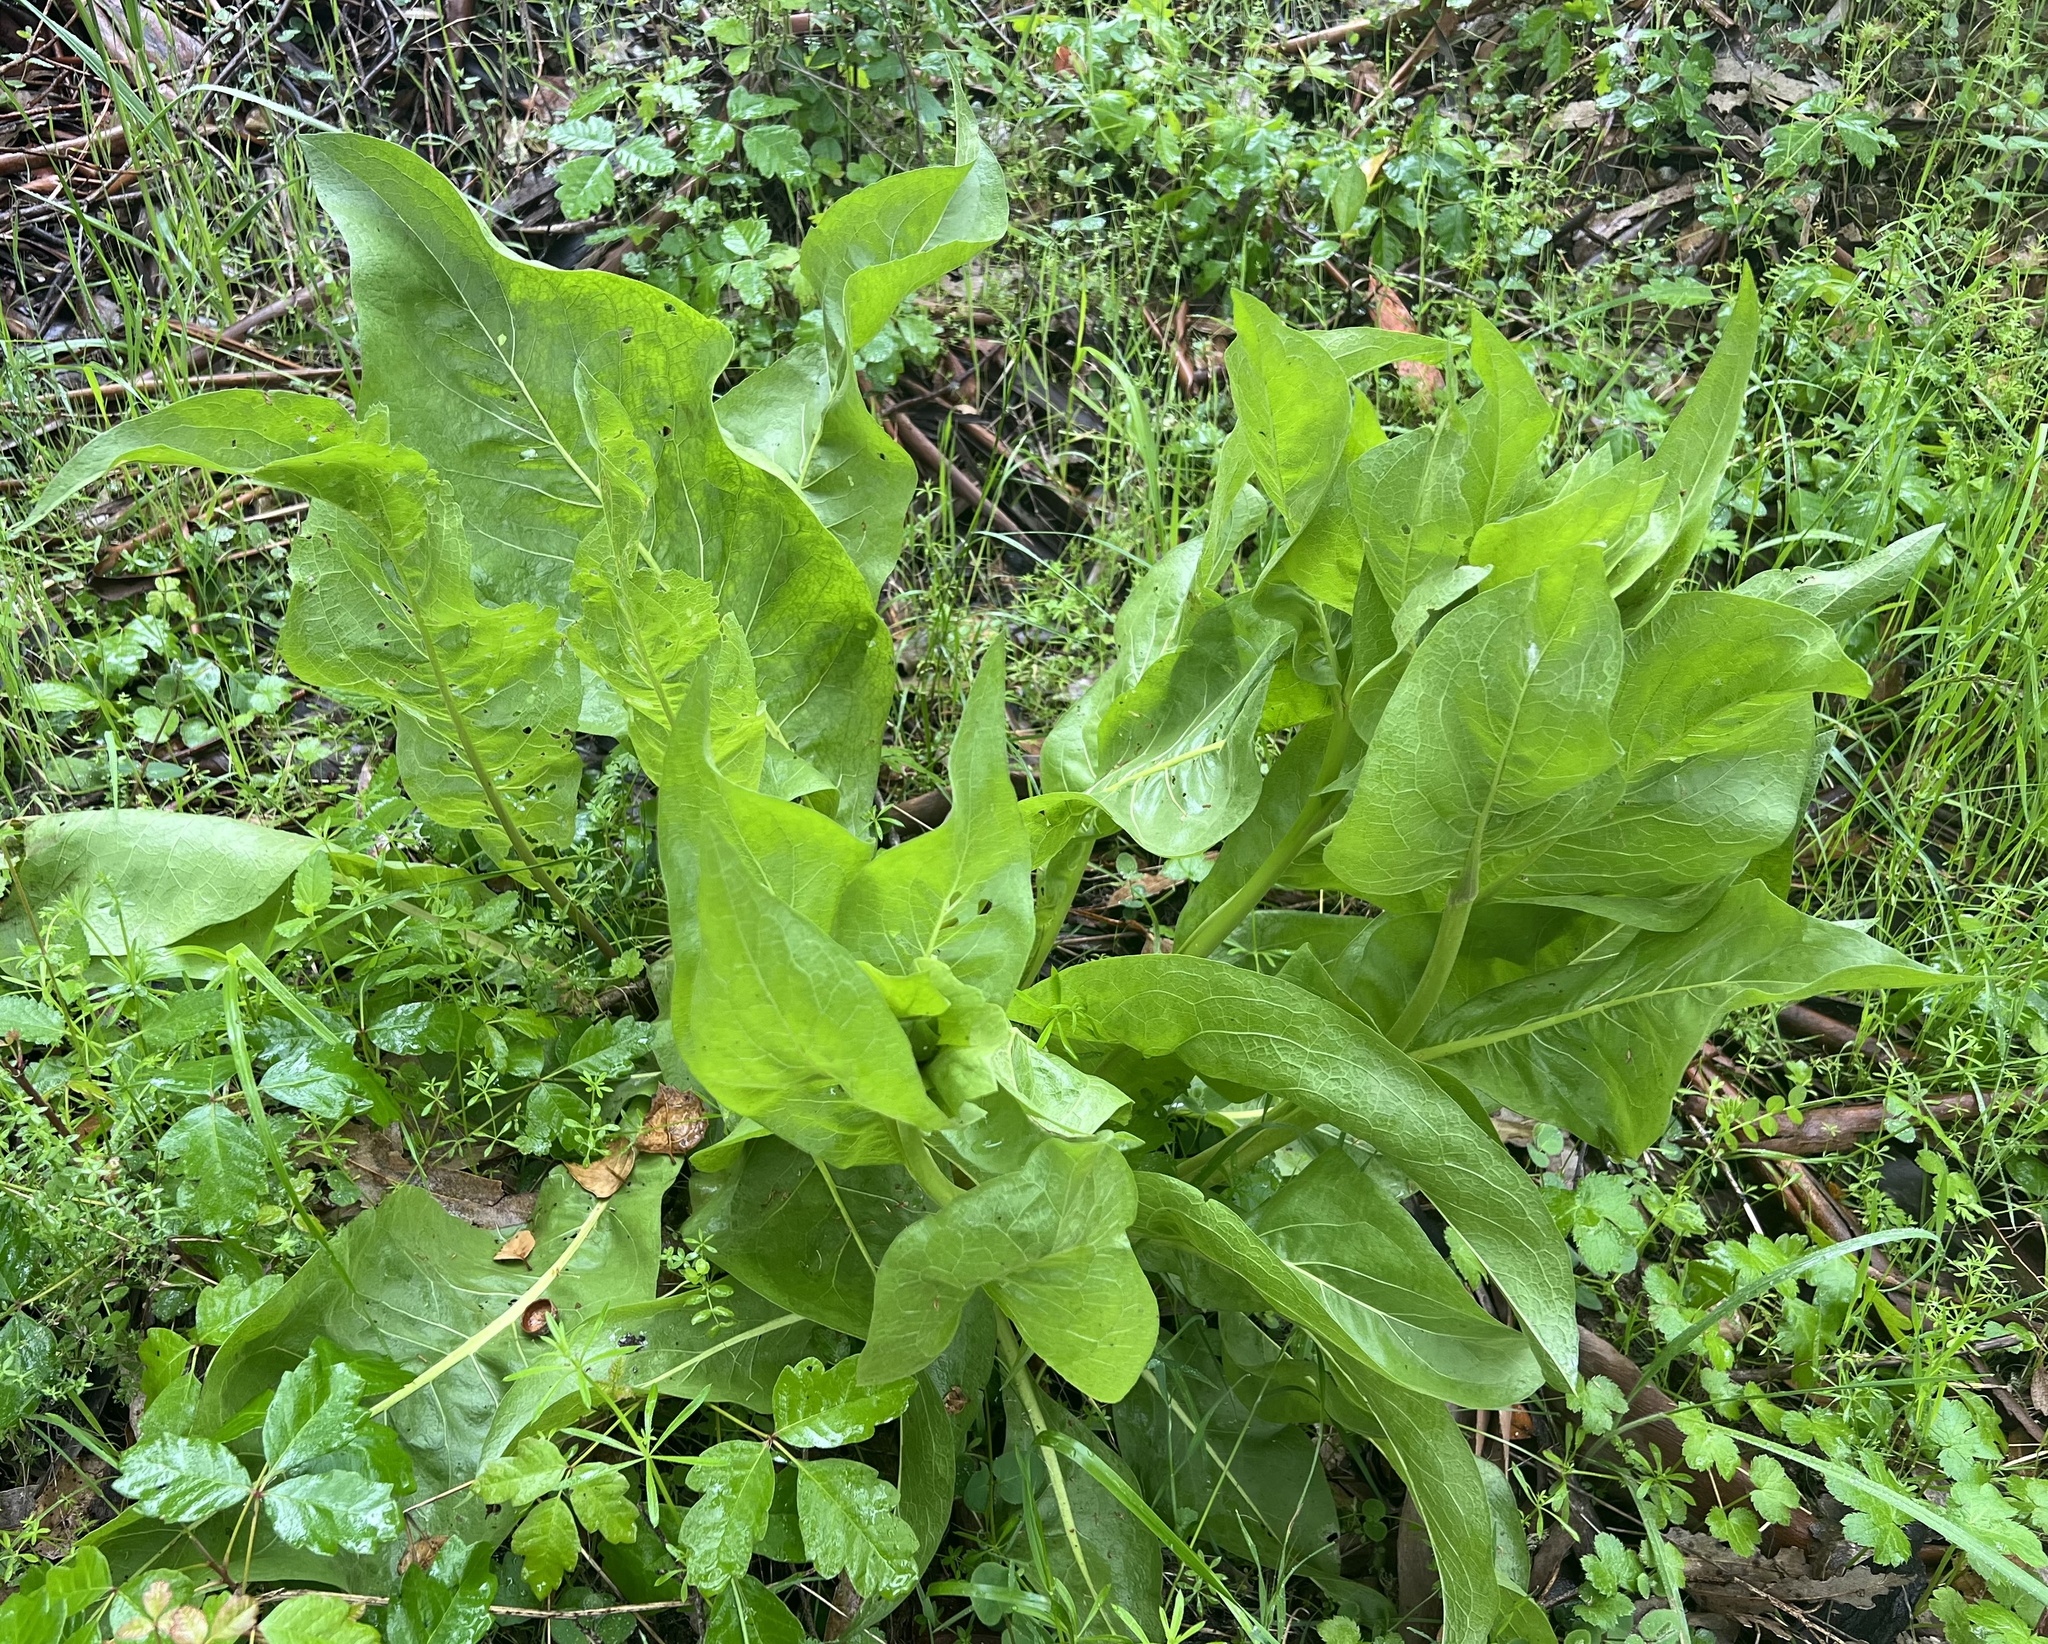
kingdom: Plantae
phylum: Tracheophyta
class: Magnoliopsida
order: Asterales
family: Asteraceae
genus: Wyethia
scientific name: Wyethia glabra
